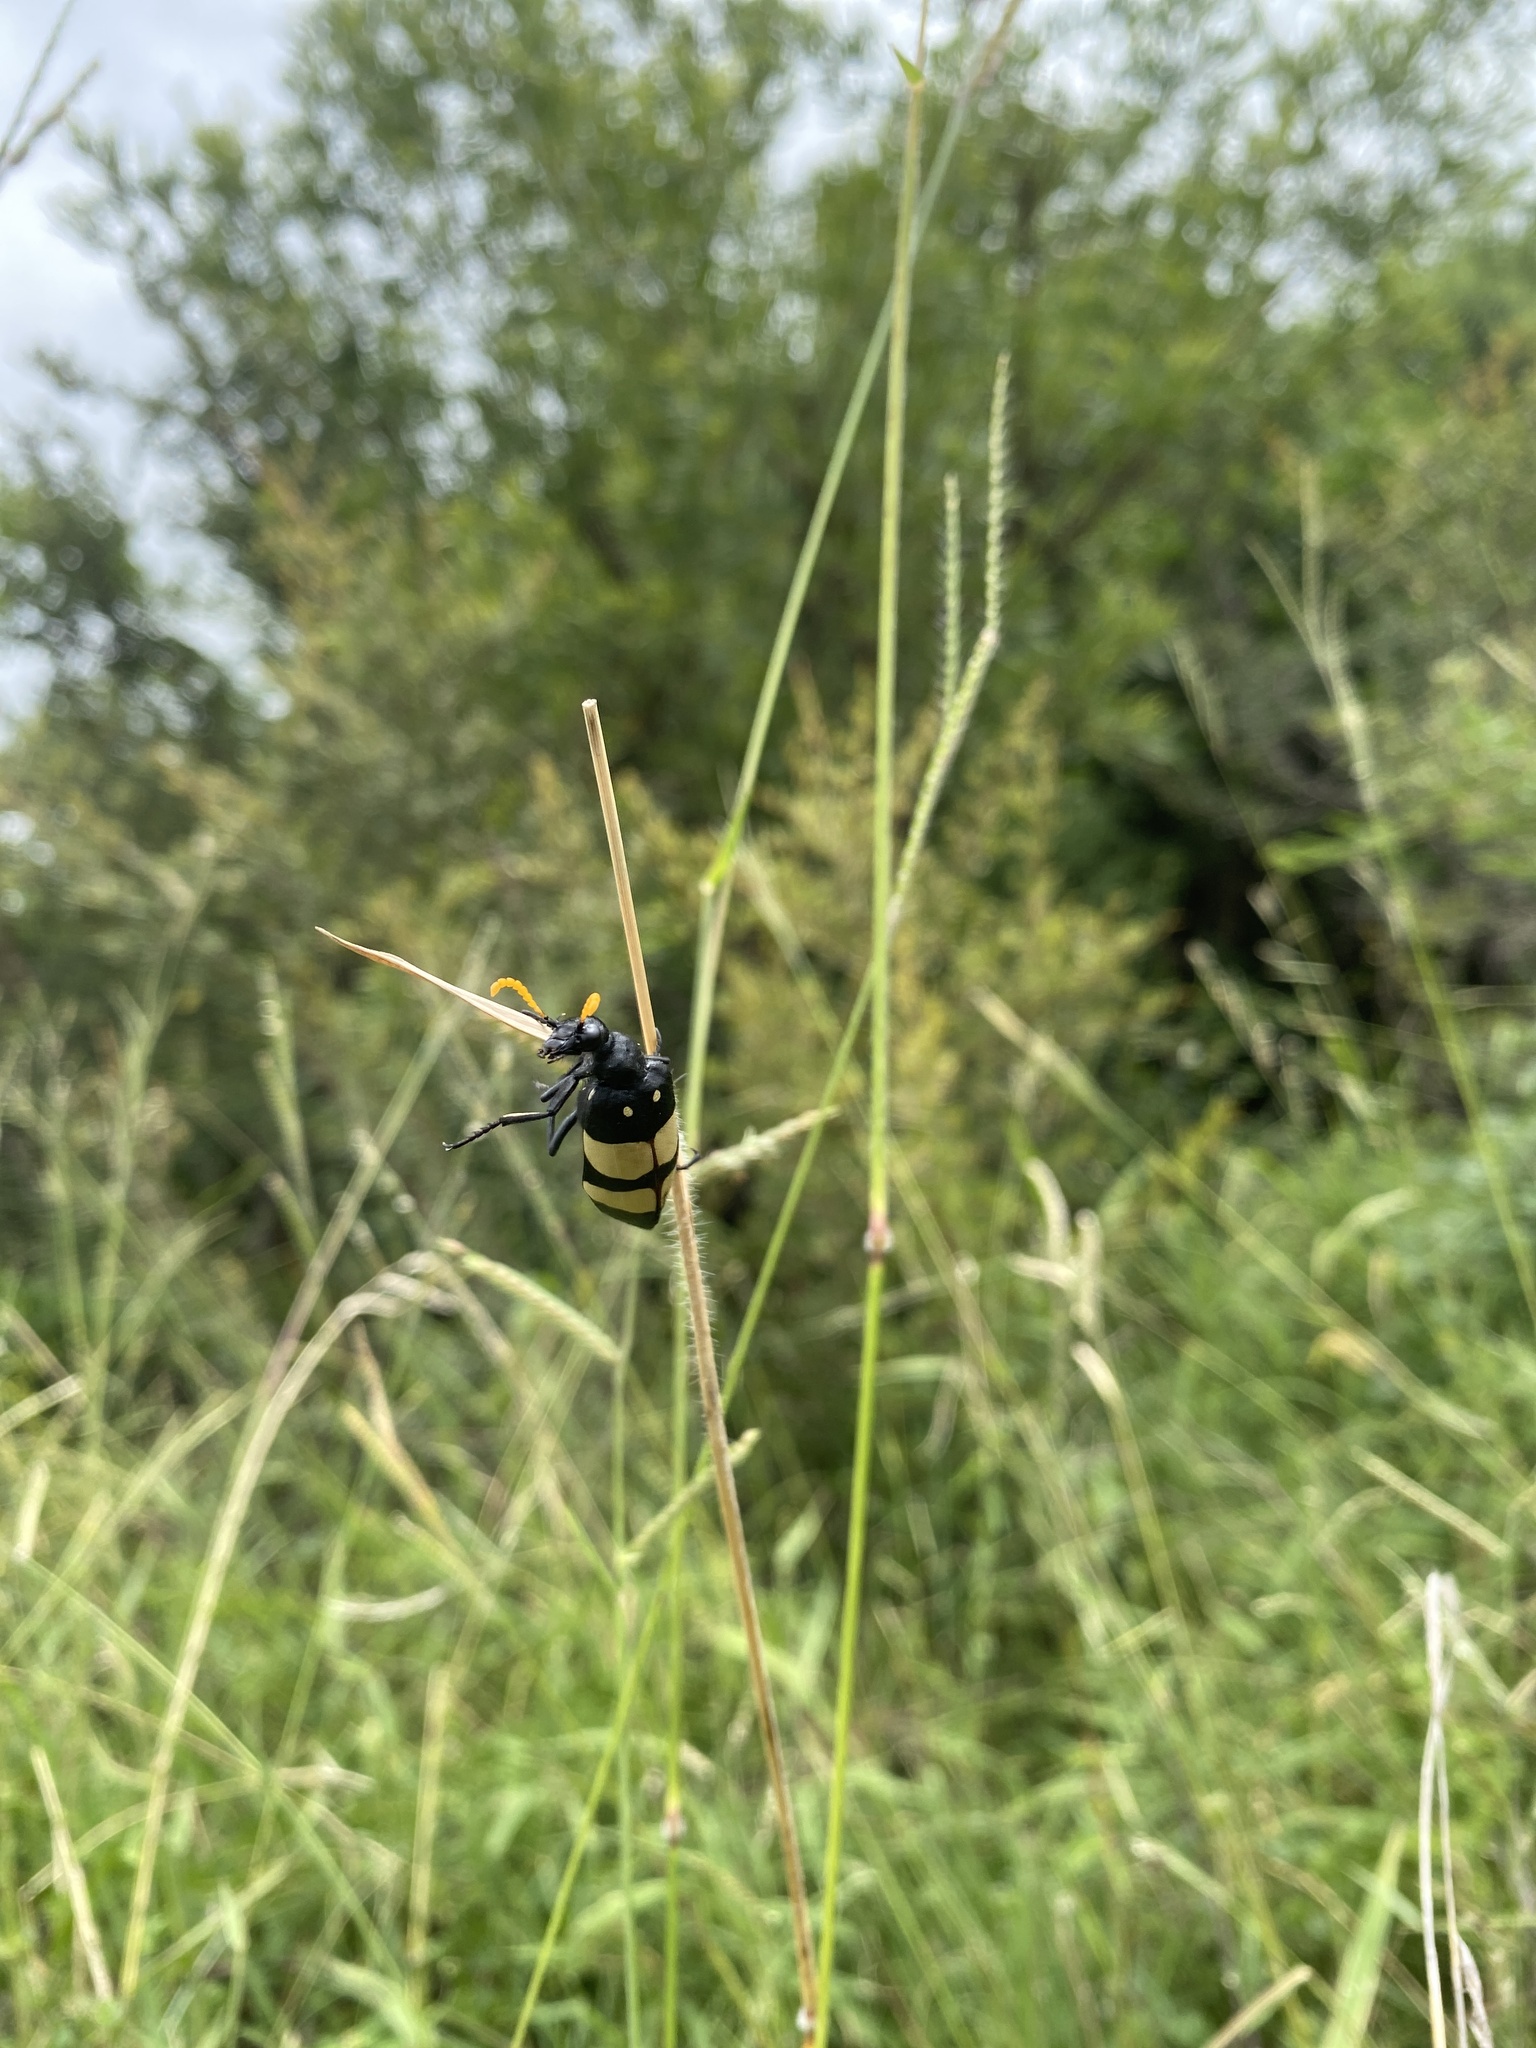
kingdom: Animalia
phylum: Arthropoda
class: Insecta
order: Coleoptera
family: Meloidae
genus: Hycleus
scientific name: Hycleus
